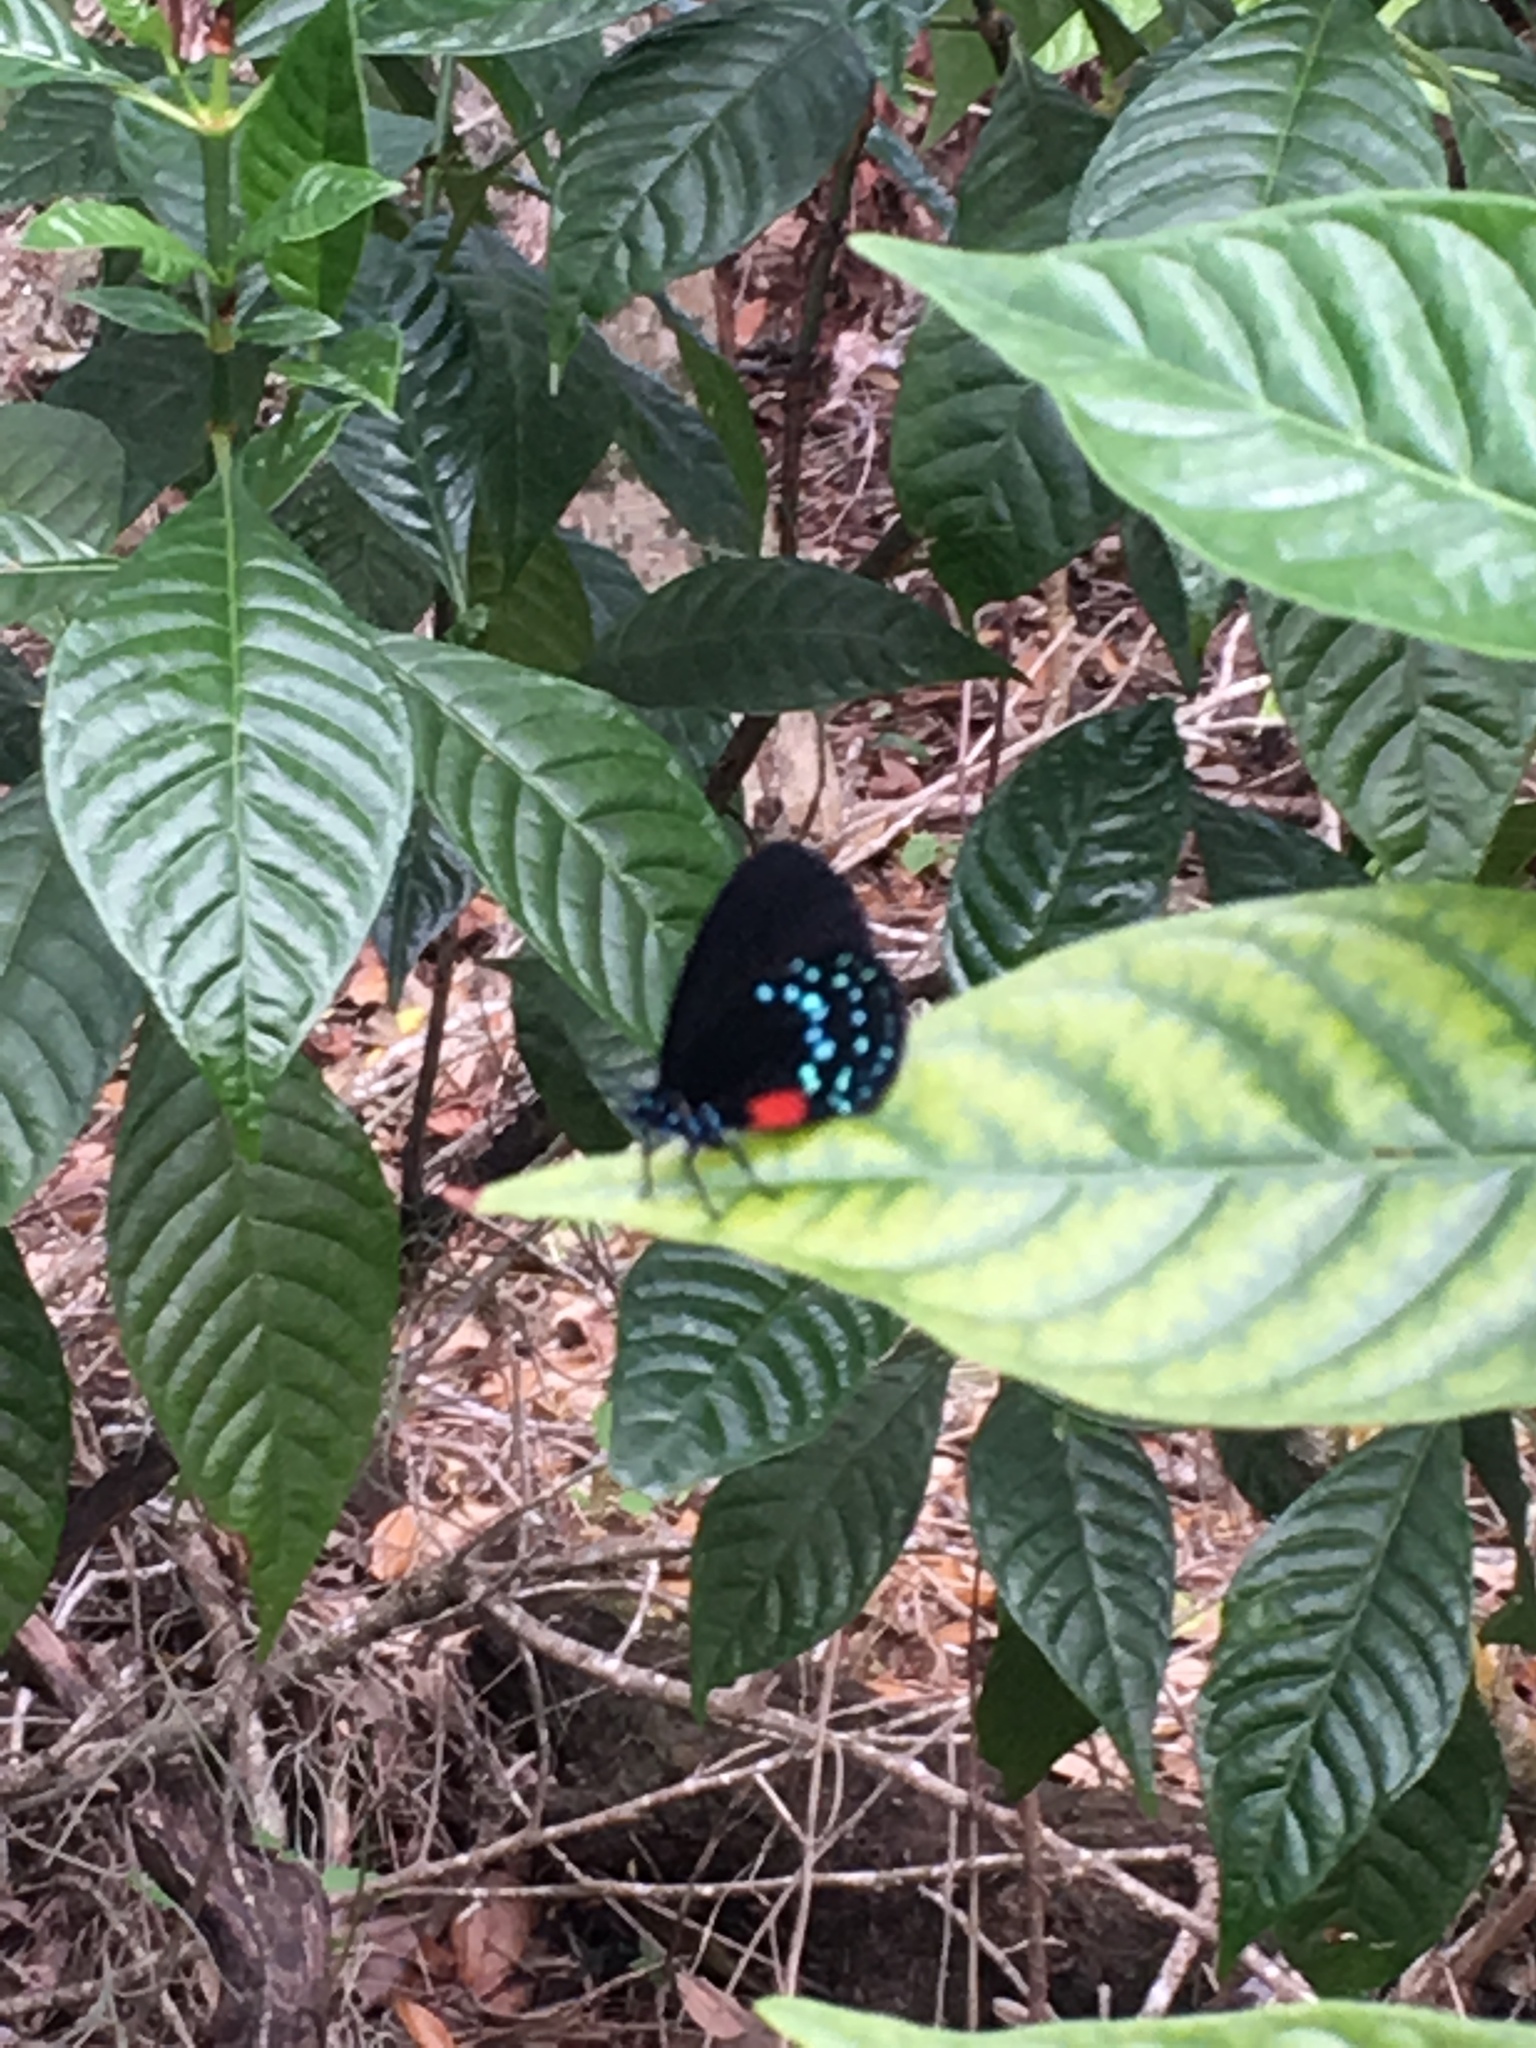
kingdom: Animalia
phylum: Arthropoda
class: Insecta
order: Lepidoptera
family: Lycaenidae
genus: Eumaeus
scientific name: Eumaeus atala
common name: Atala
